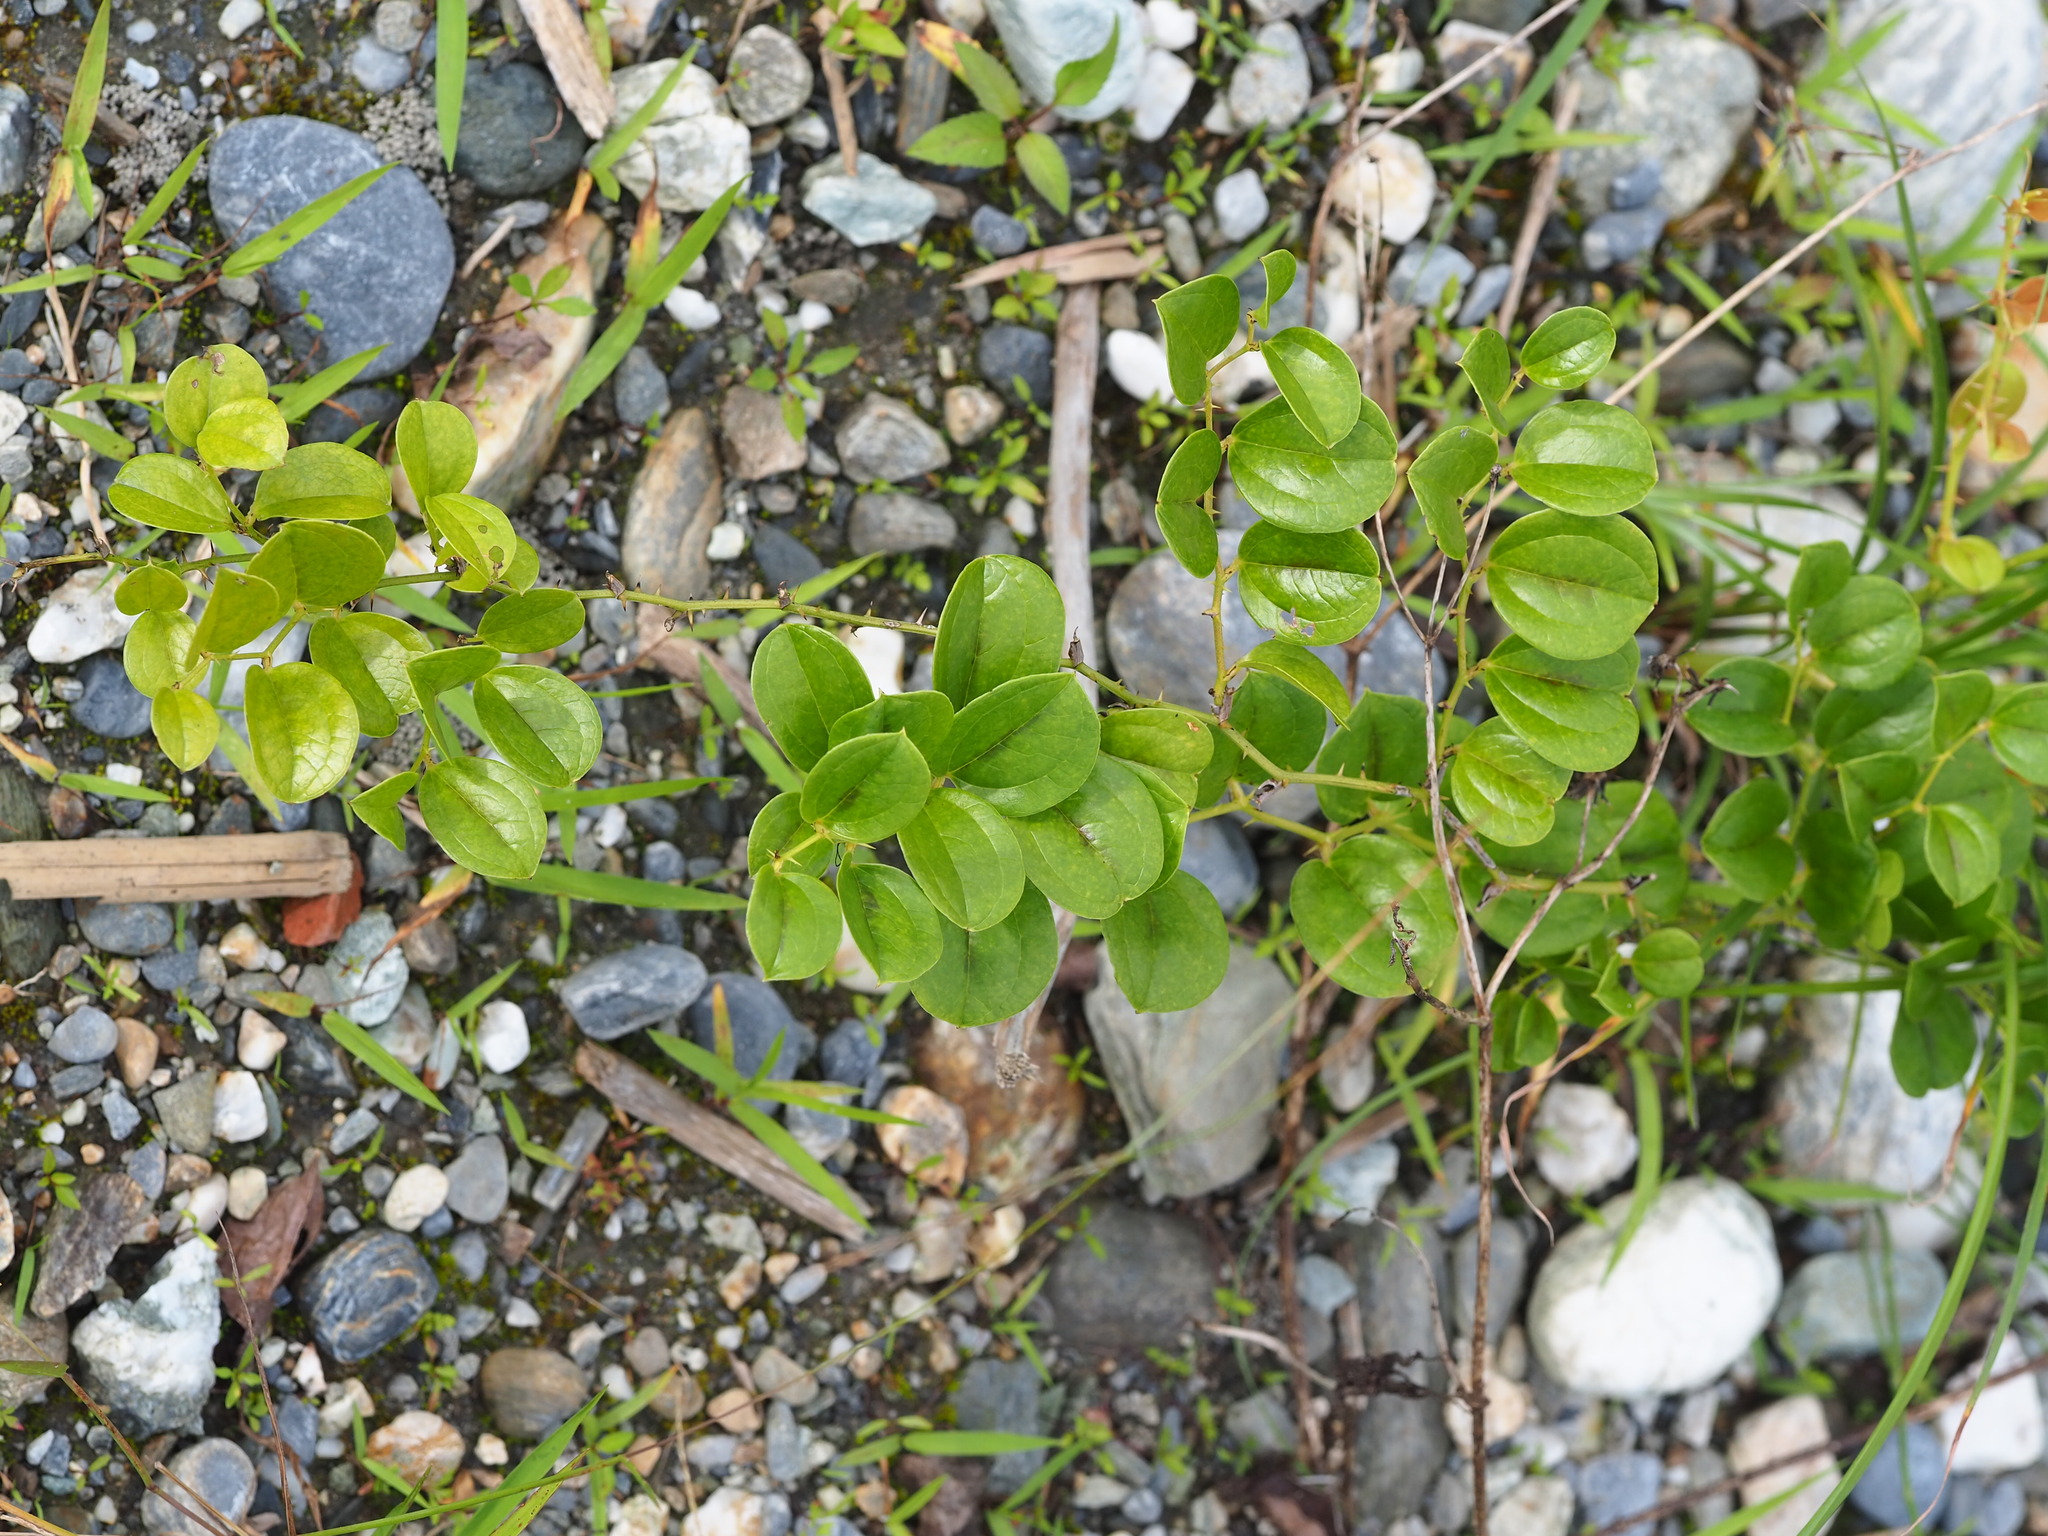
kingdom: Plantae
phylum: Tracheophyta
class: Liliopsida
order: Liliales
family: Smilacaceae
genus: Smilax
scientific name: Smilax china
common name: Chinaroot
